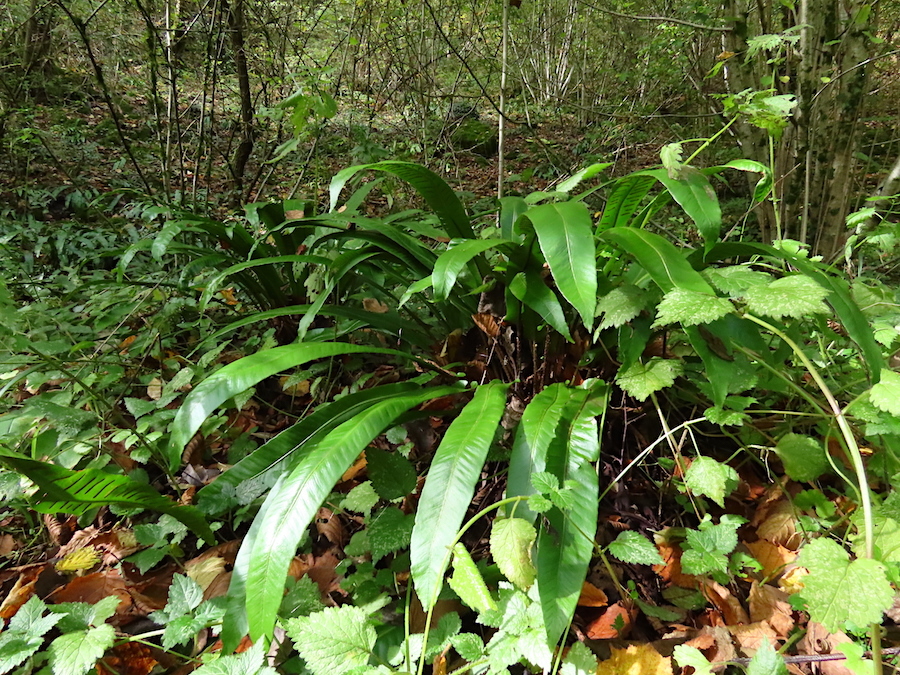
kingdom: Plantae
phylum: Tracheophyta
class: Polypodiopsida
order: Polypodiales
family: Aspleniaceae
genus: Asplenium
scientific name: Asplenium scolopendrium
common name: Hart's-tongue fern
